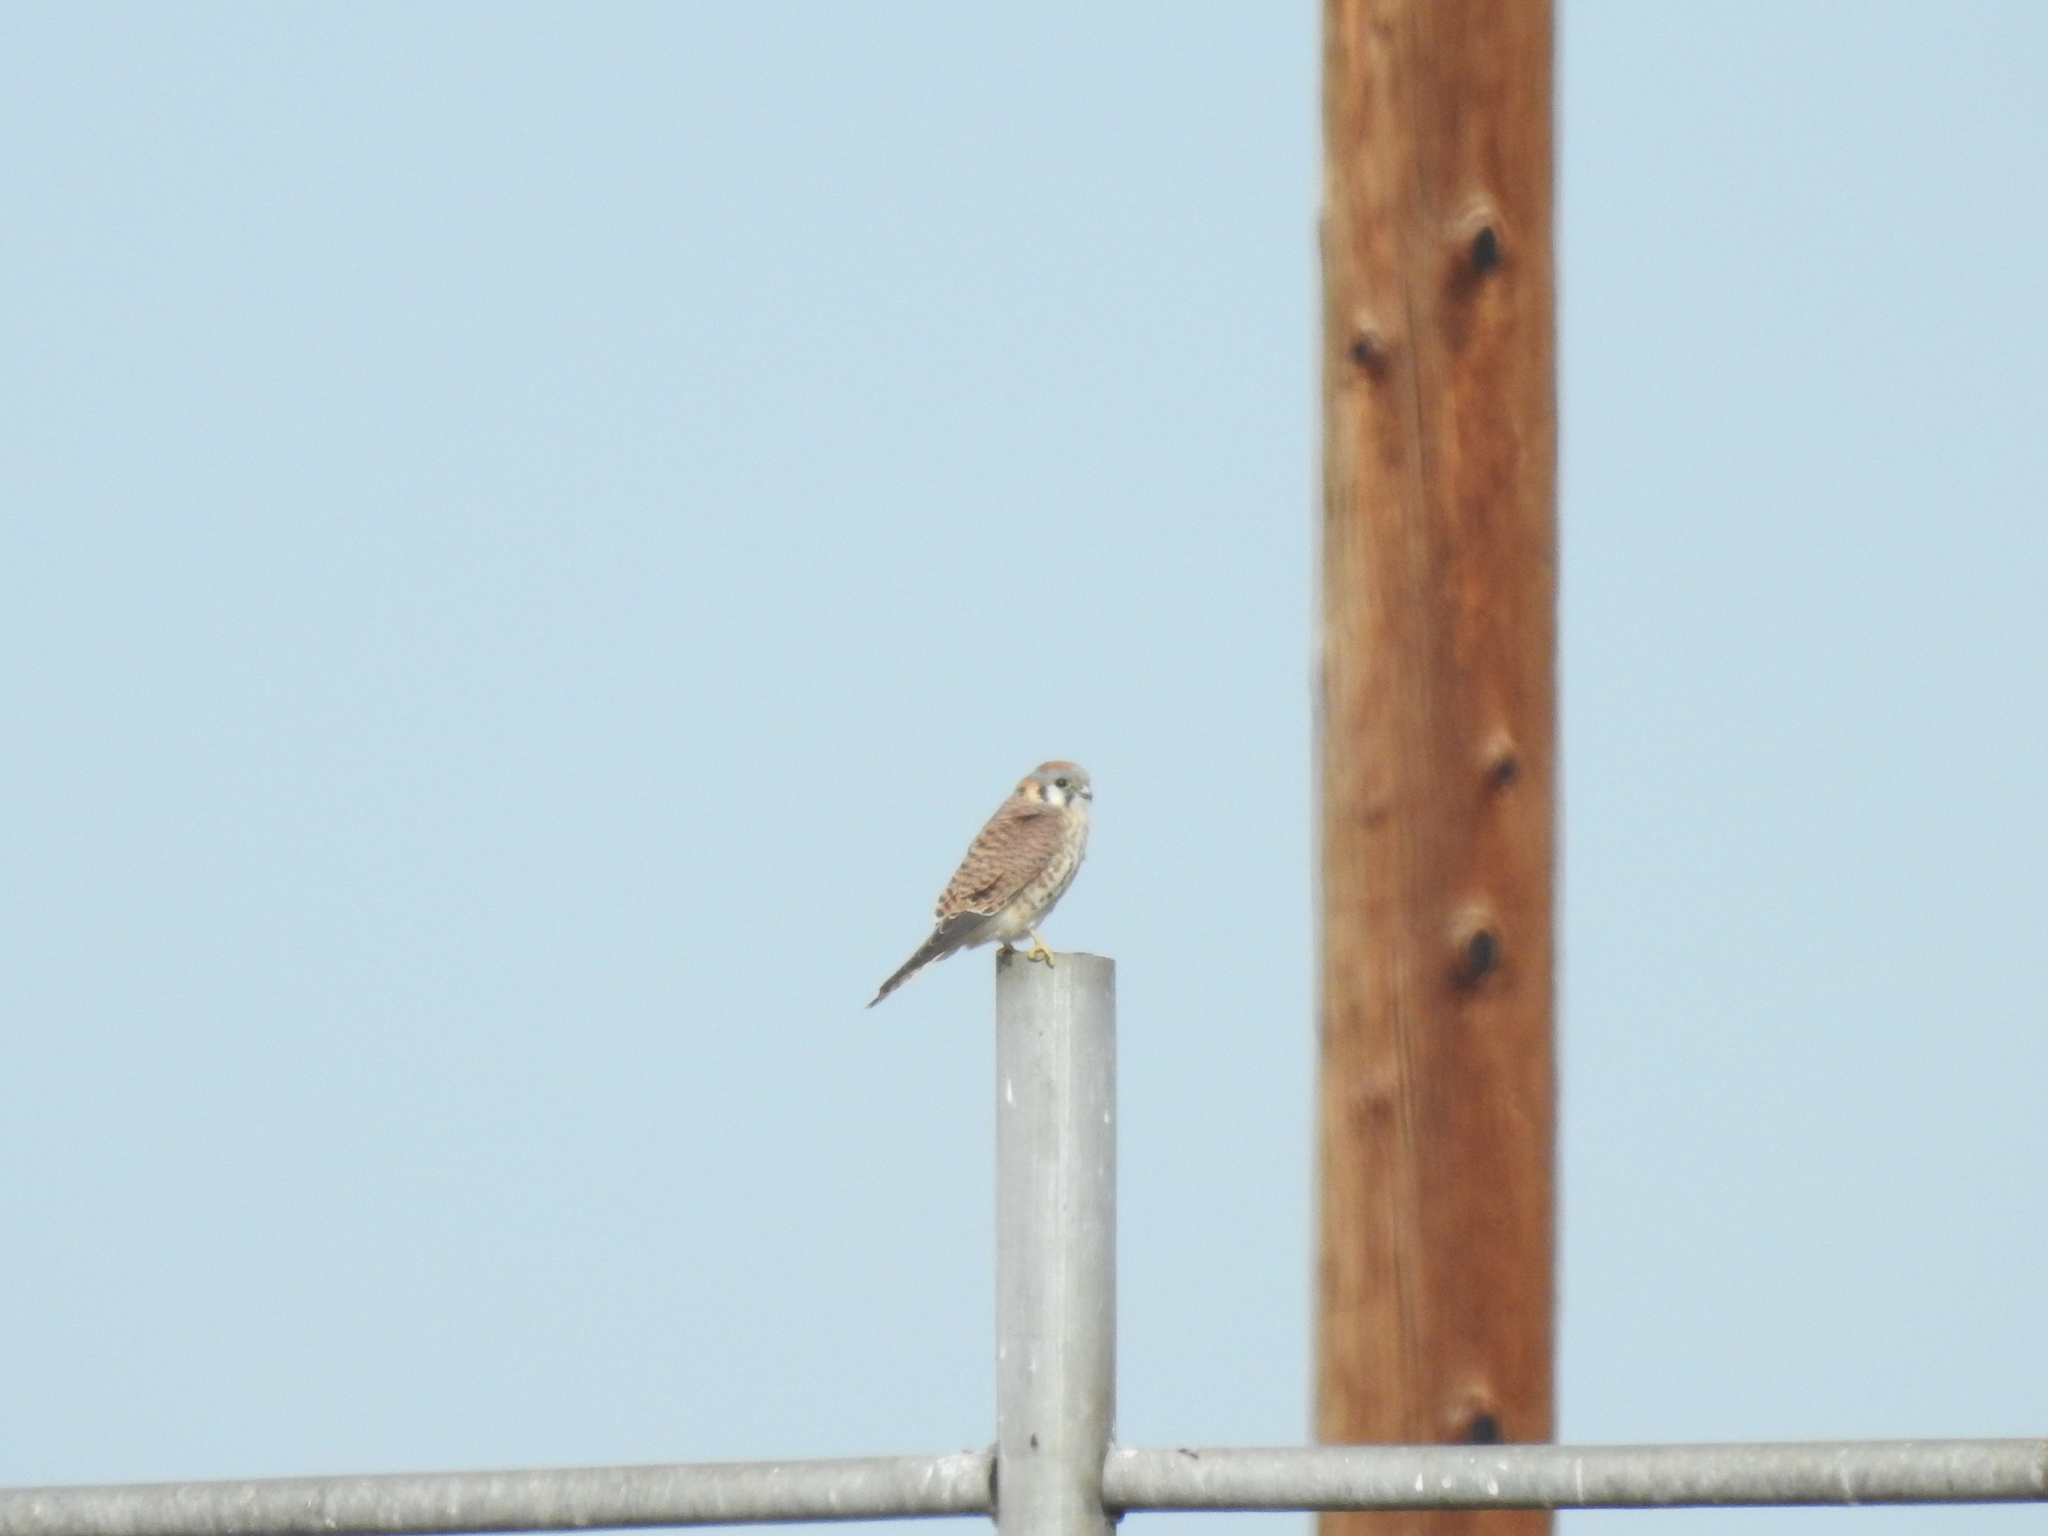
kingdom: Animalia
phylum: Chordata
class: Aves
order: Falconiformes
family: Falconidae
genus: Falco
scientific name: Falco sparverius
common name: American kestrel
